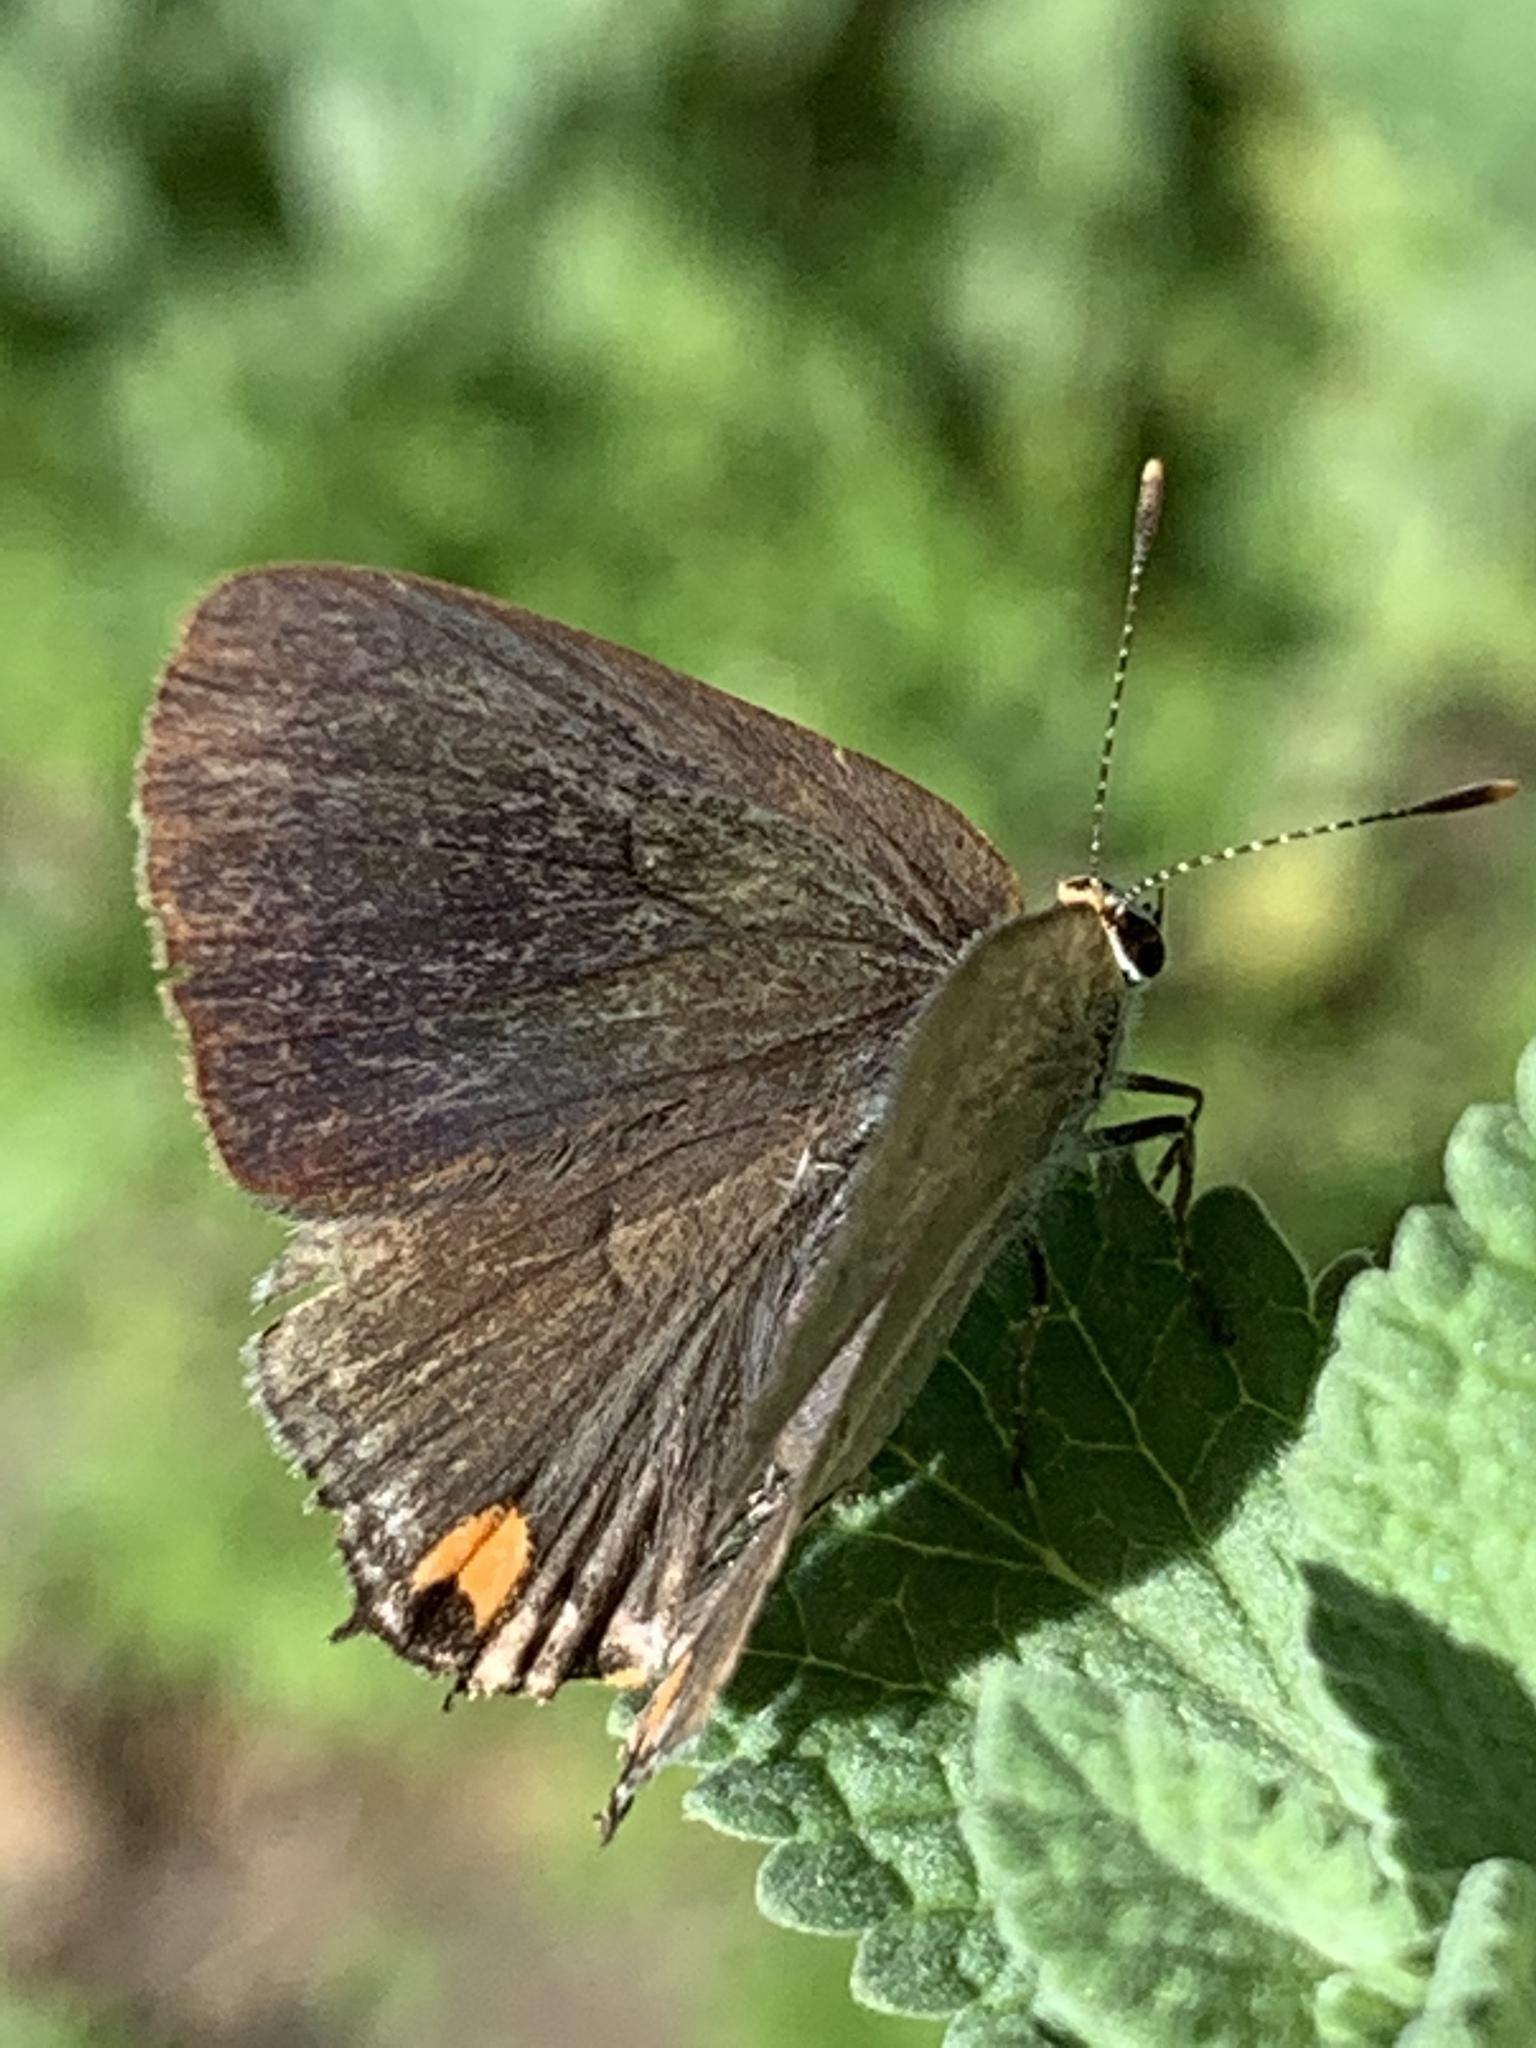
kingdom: Animalia
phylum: Arthropoda
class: Insecta
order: Lepidoptera
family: Lycaenidae
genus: Strymon
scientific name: Strymon melinus
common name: Gray hairstreak
